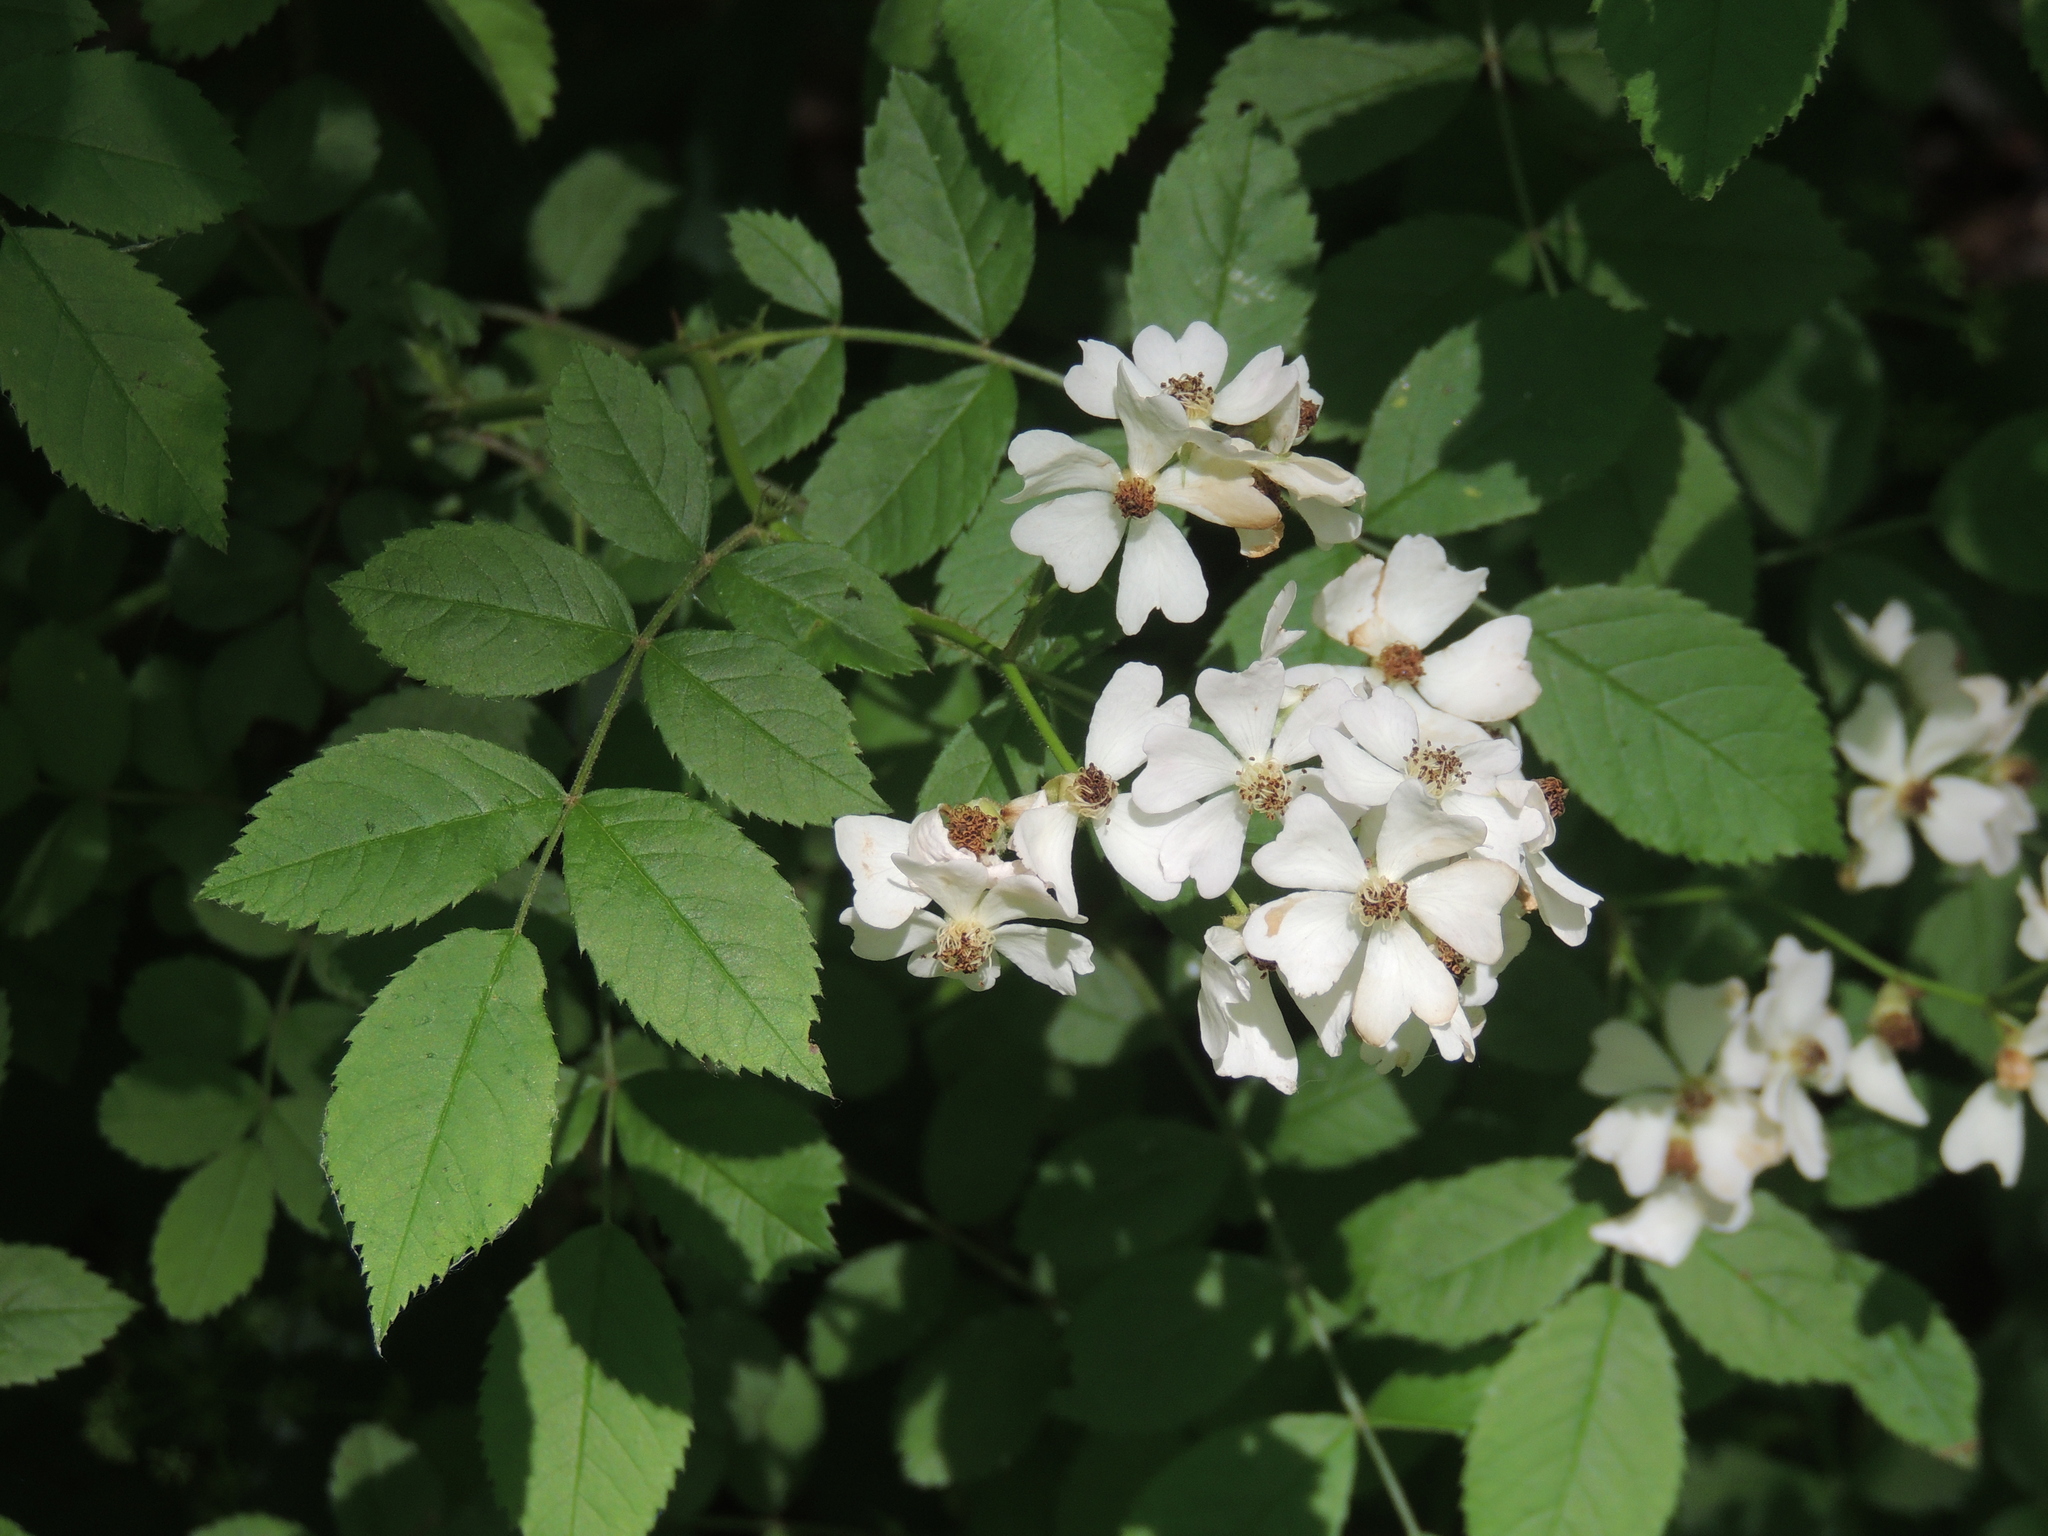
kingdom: Plantae
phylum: Tracheophyta
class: Magnoliopsida
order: Rosales
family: Rosaceae
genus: Rosa
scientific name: Rosa multiflora
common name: Multiflora rose
